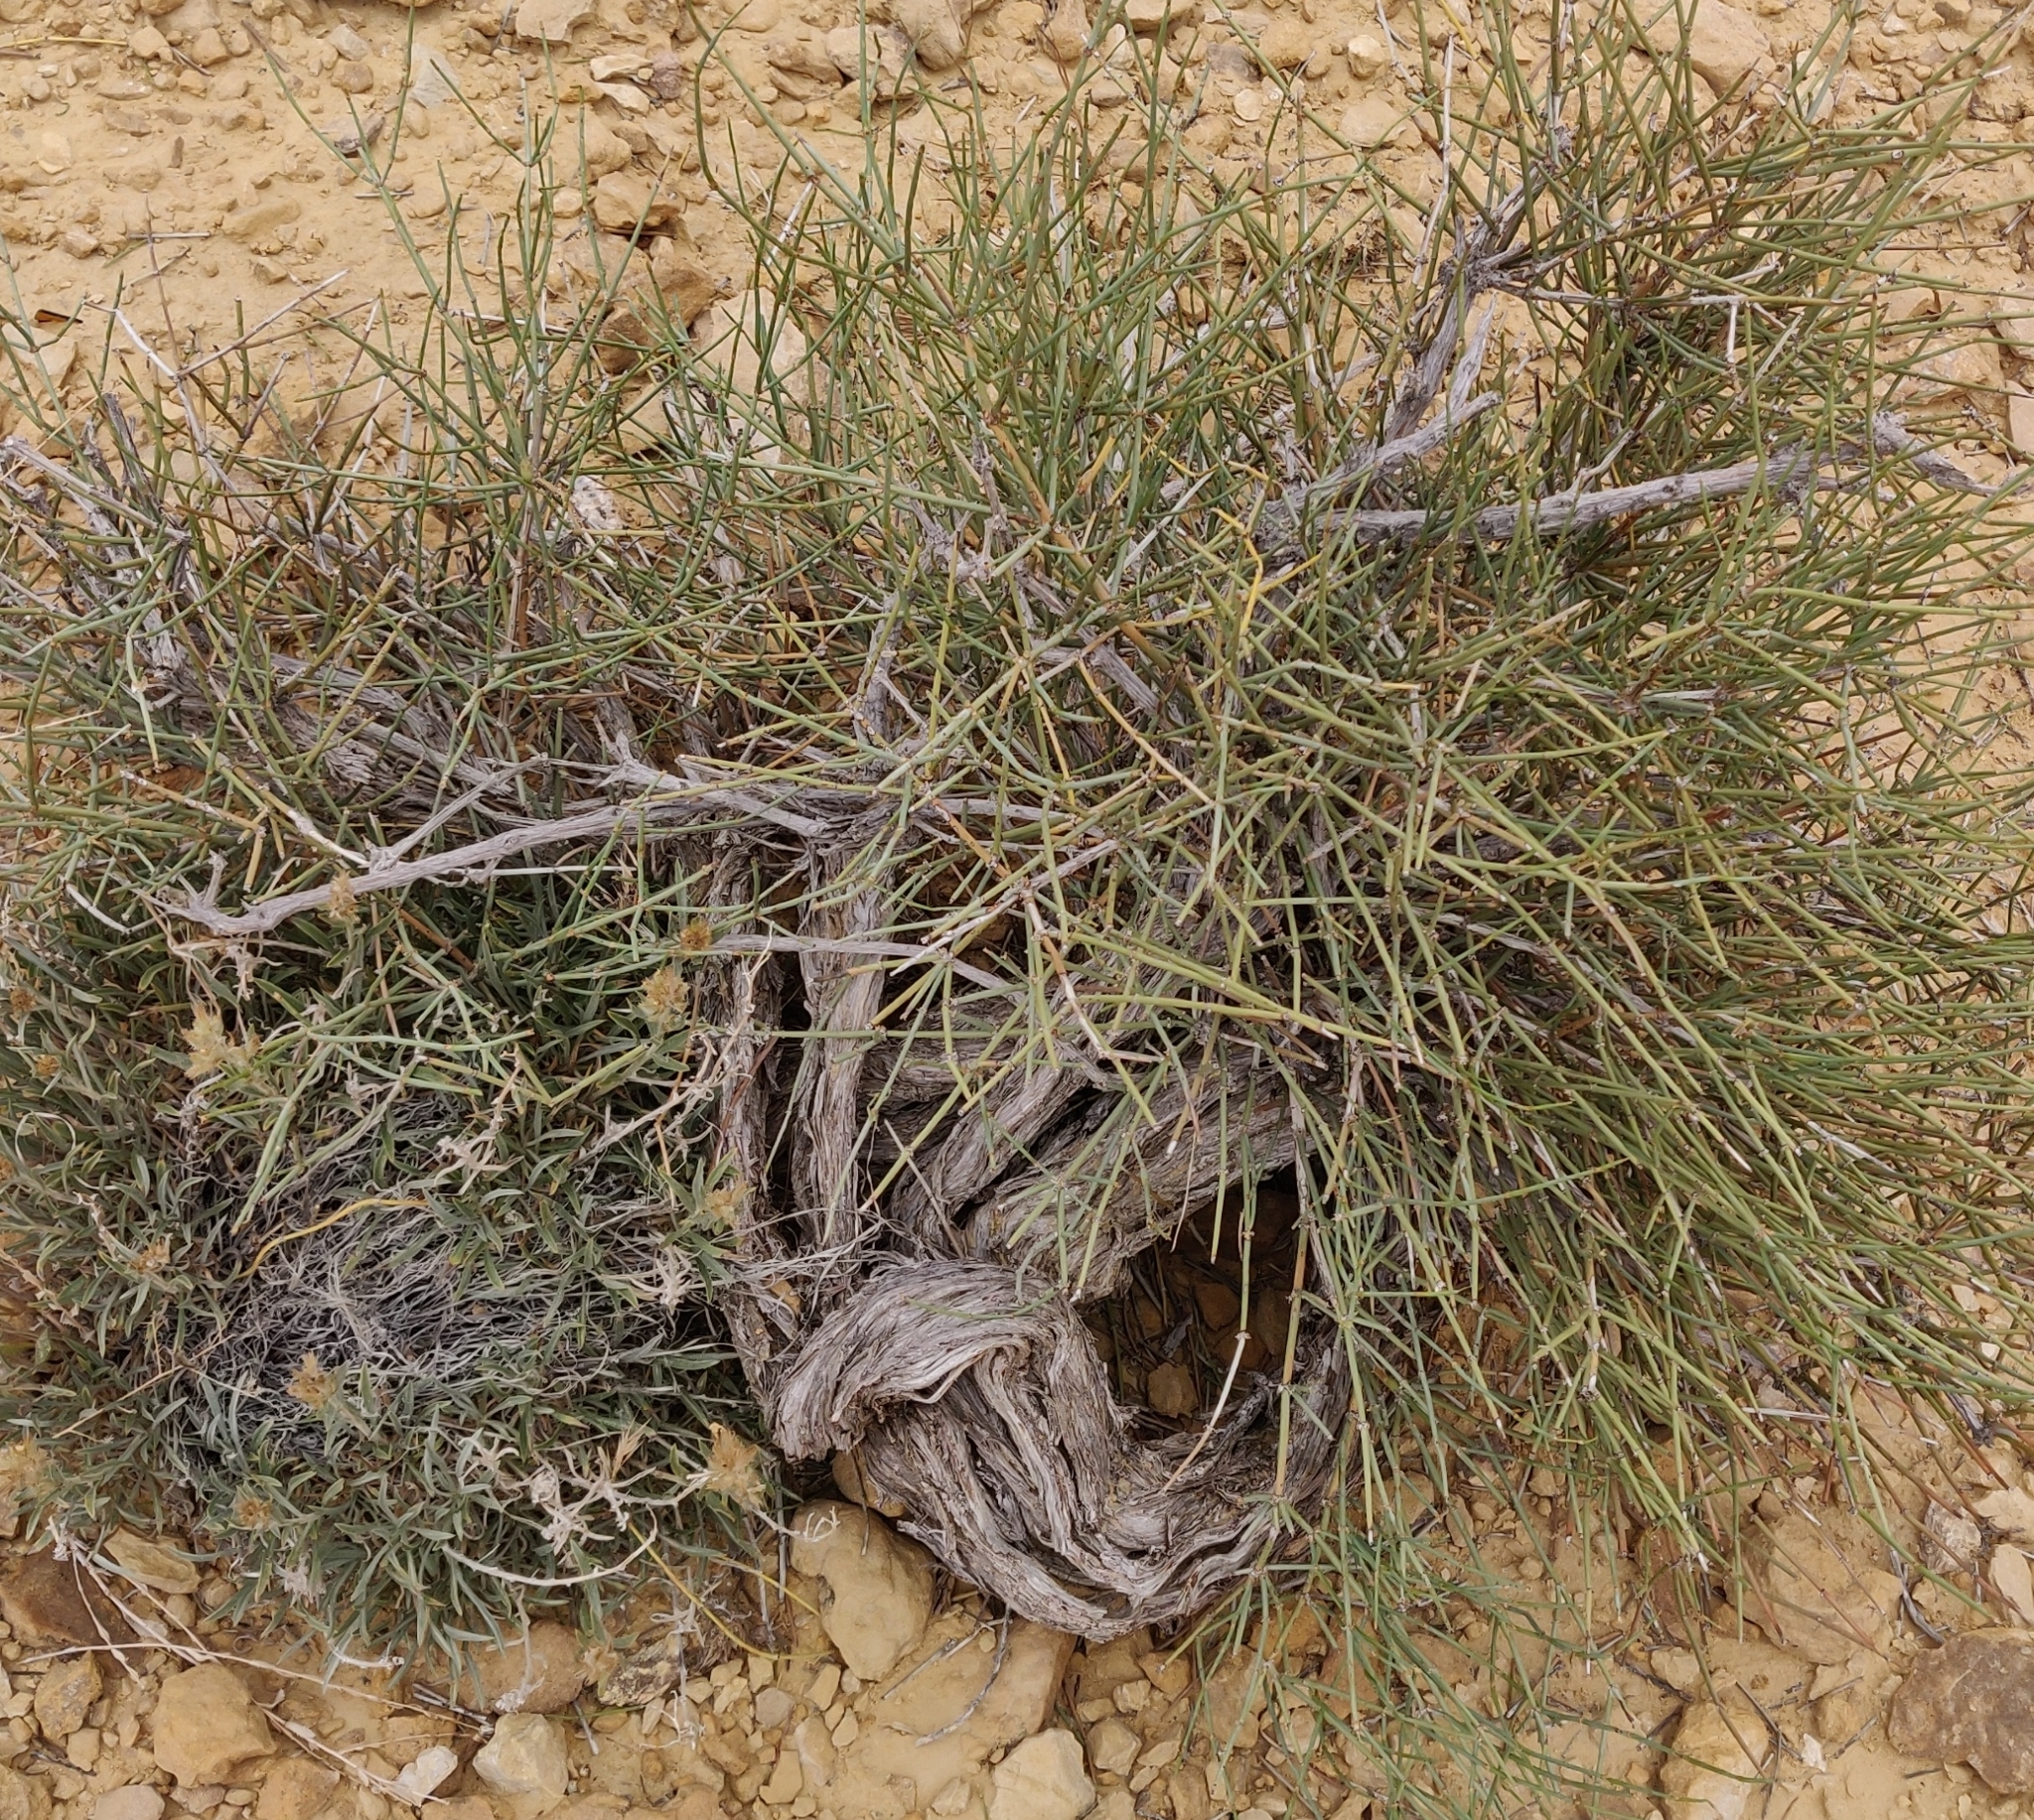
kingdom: Plantae
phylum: Tracheophyta
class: Gnetopsida
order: Ephedrales
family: Ephedraceae
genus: Ephedra
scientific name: Ephedra torreyana
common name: Torrey ephedra
